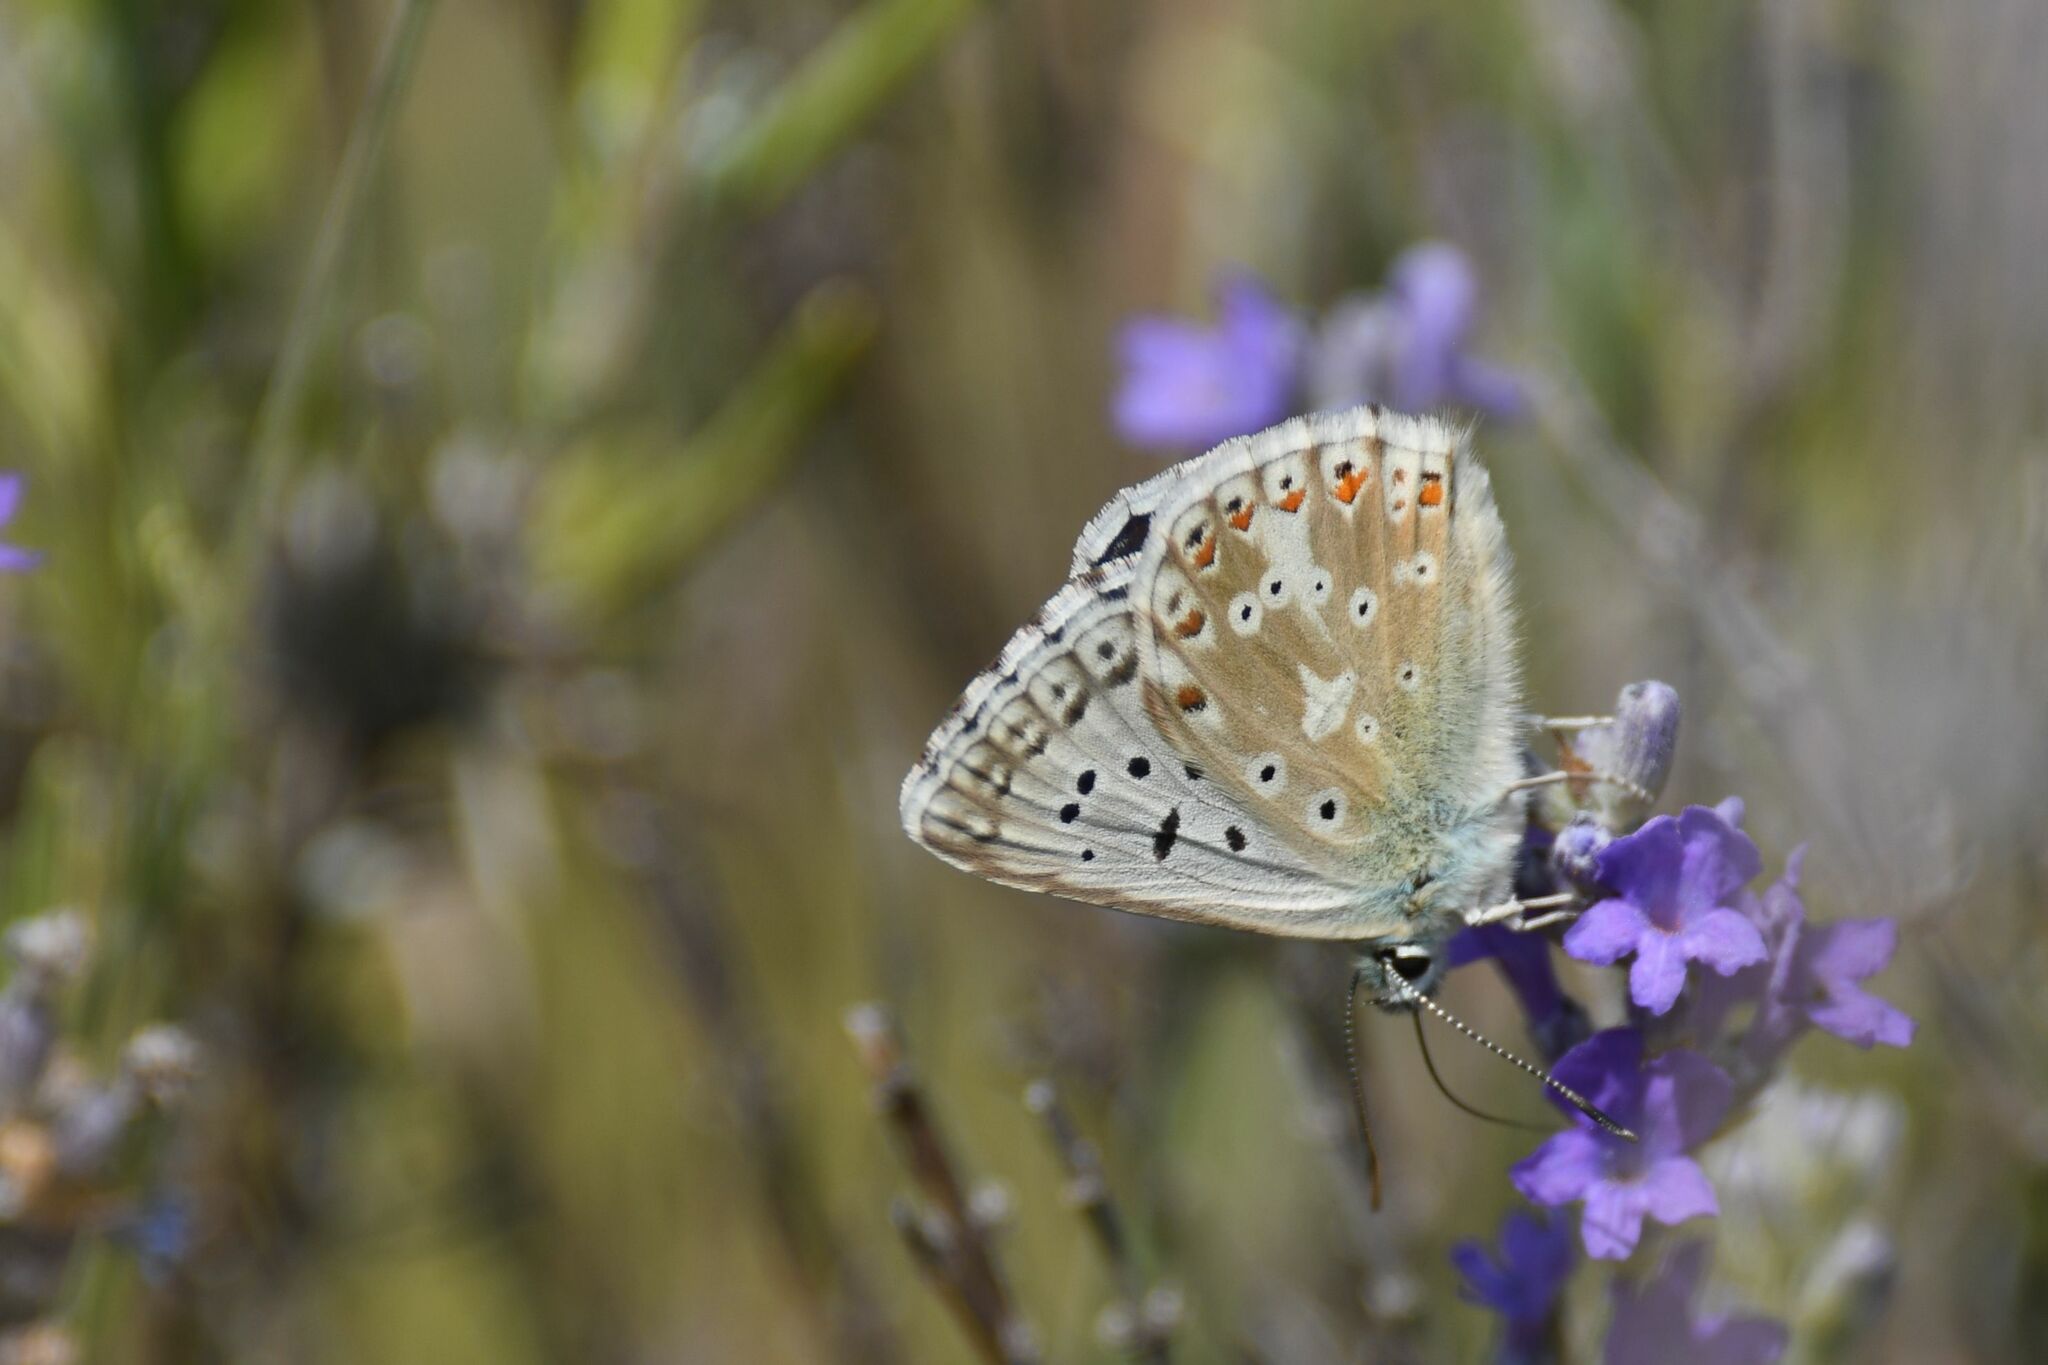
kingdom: Animalia
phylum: Arthropoda
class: Insecta
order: Lepidoptera
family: Lycaenidae
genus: Lysandra
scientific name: Lysandra coridon
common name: Chalkhill blue
